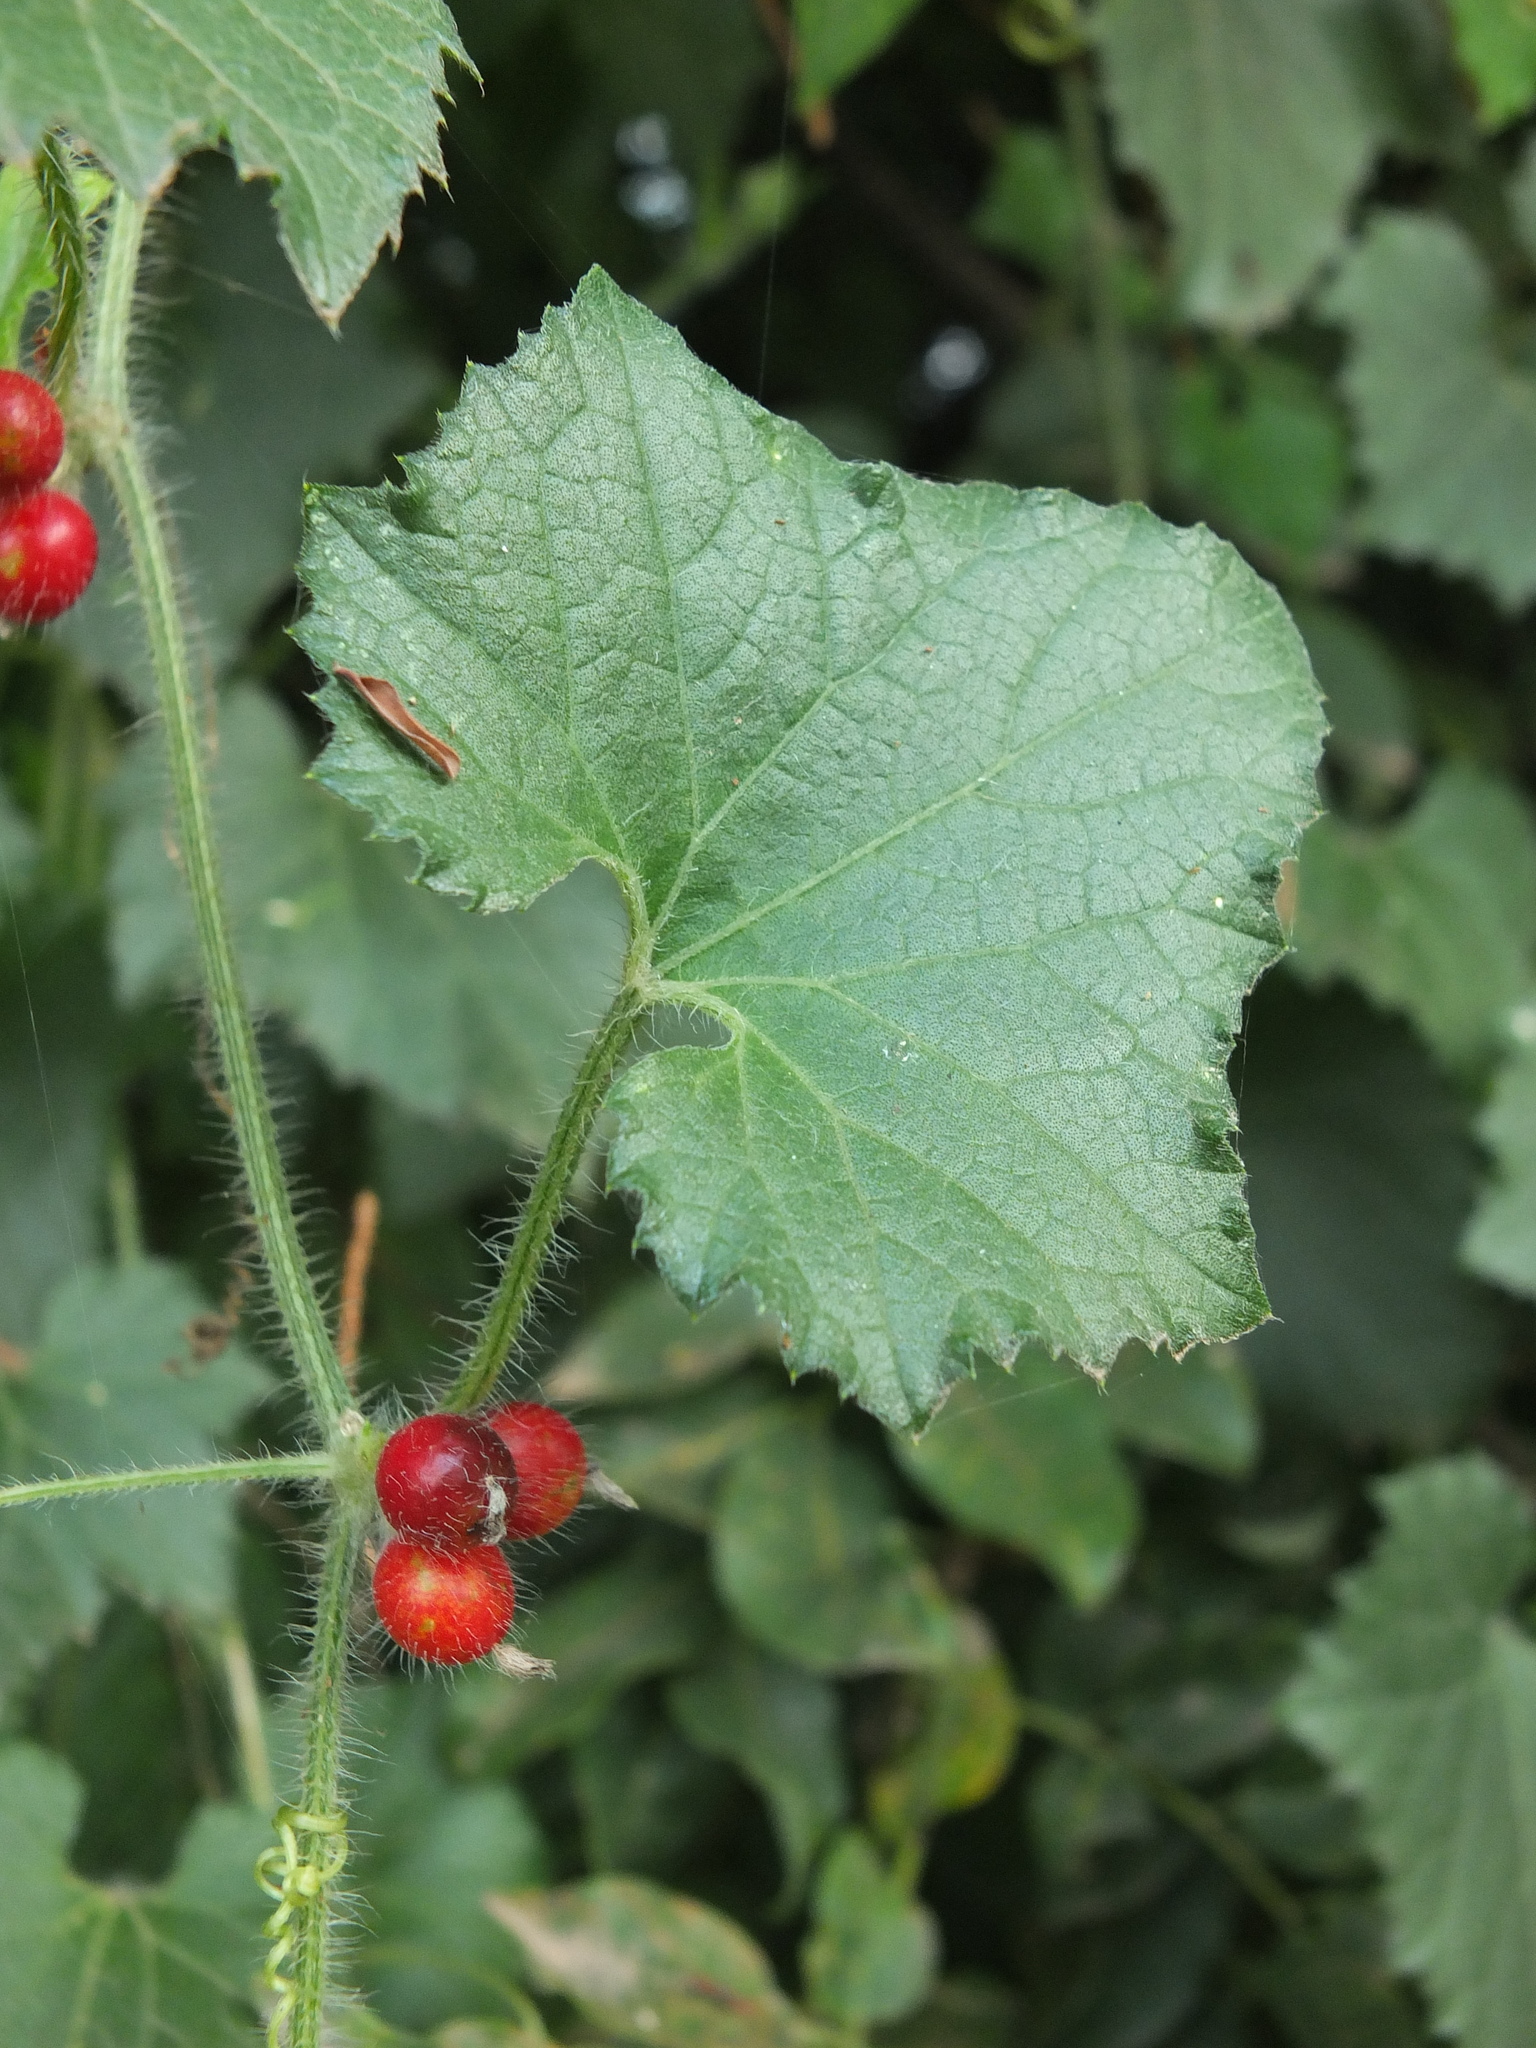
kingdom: Plantae
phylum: Tracheophyta
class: Magnoliopsida
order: Cucurbitales
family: Cucurbitaceae
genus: Cucumis
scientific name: Cucumis maderaspatanus
